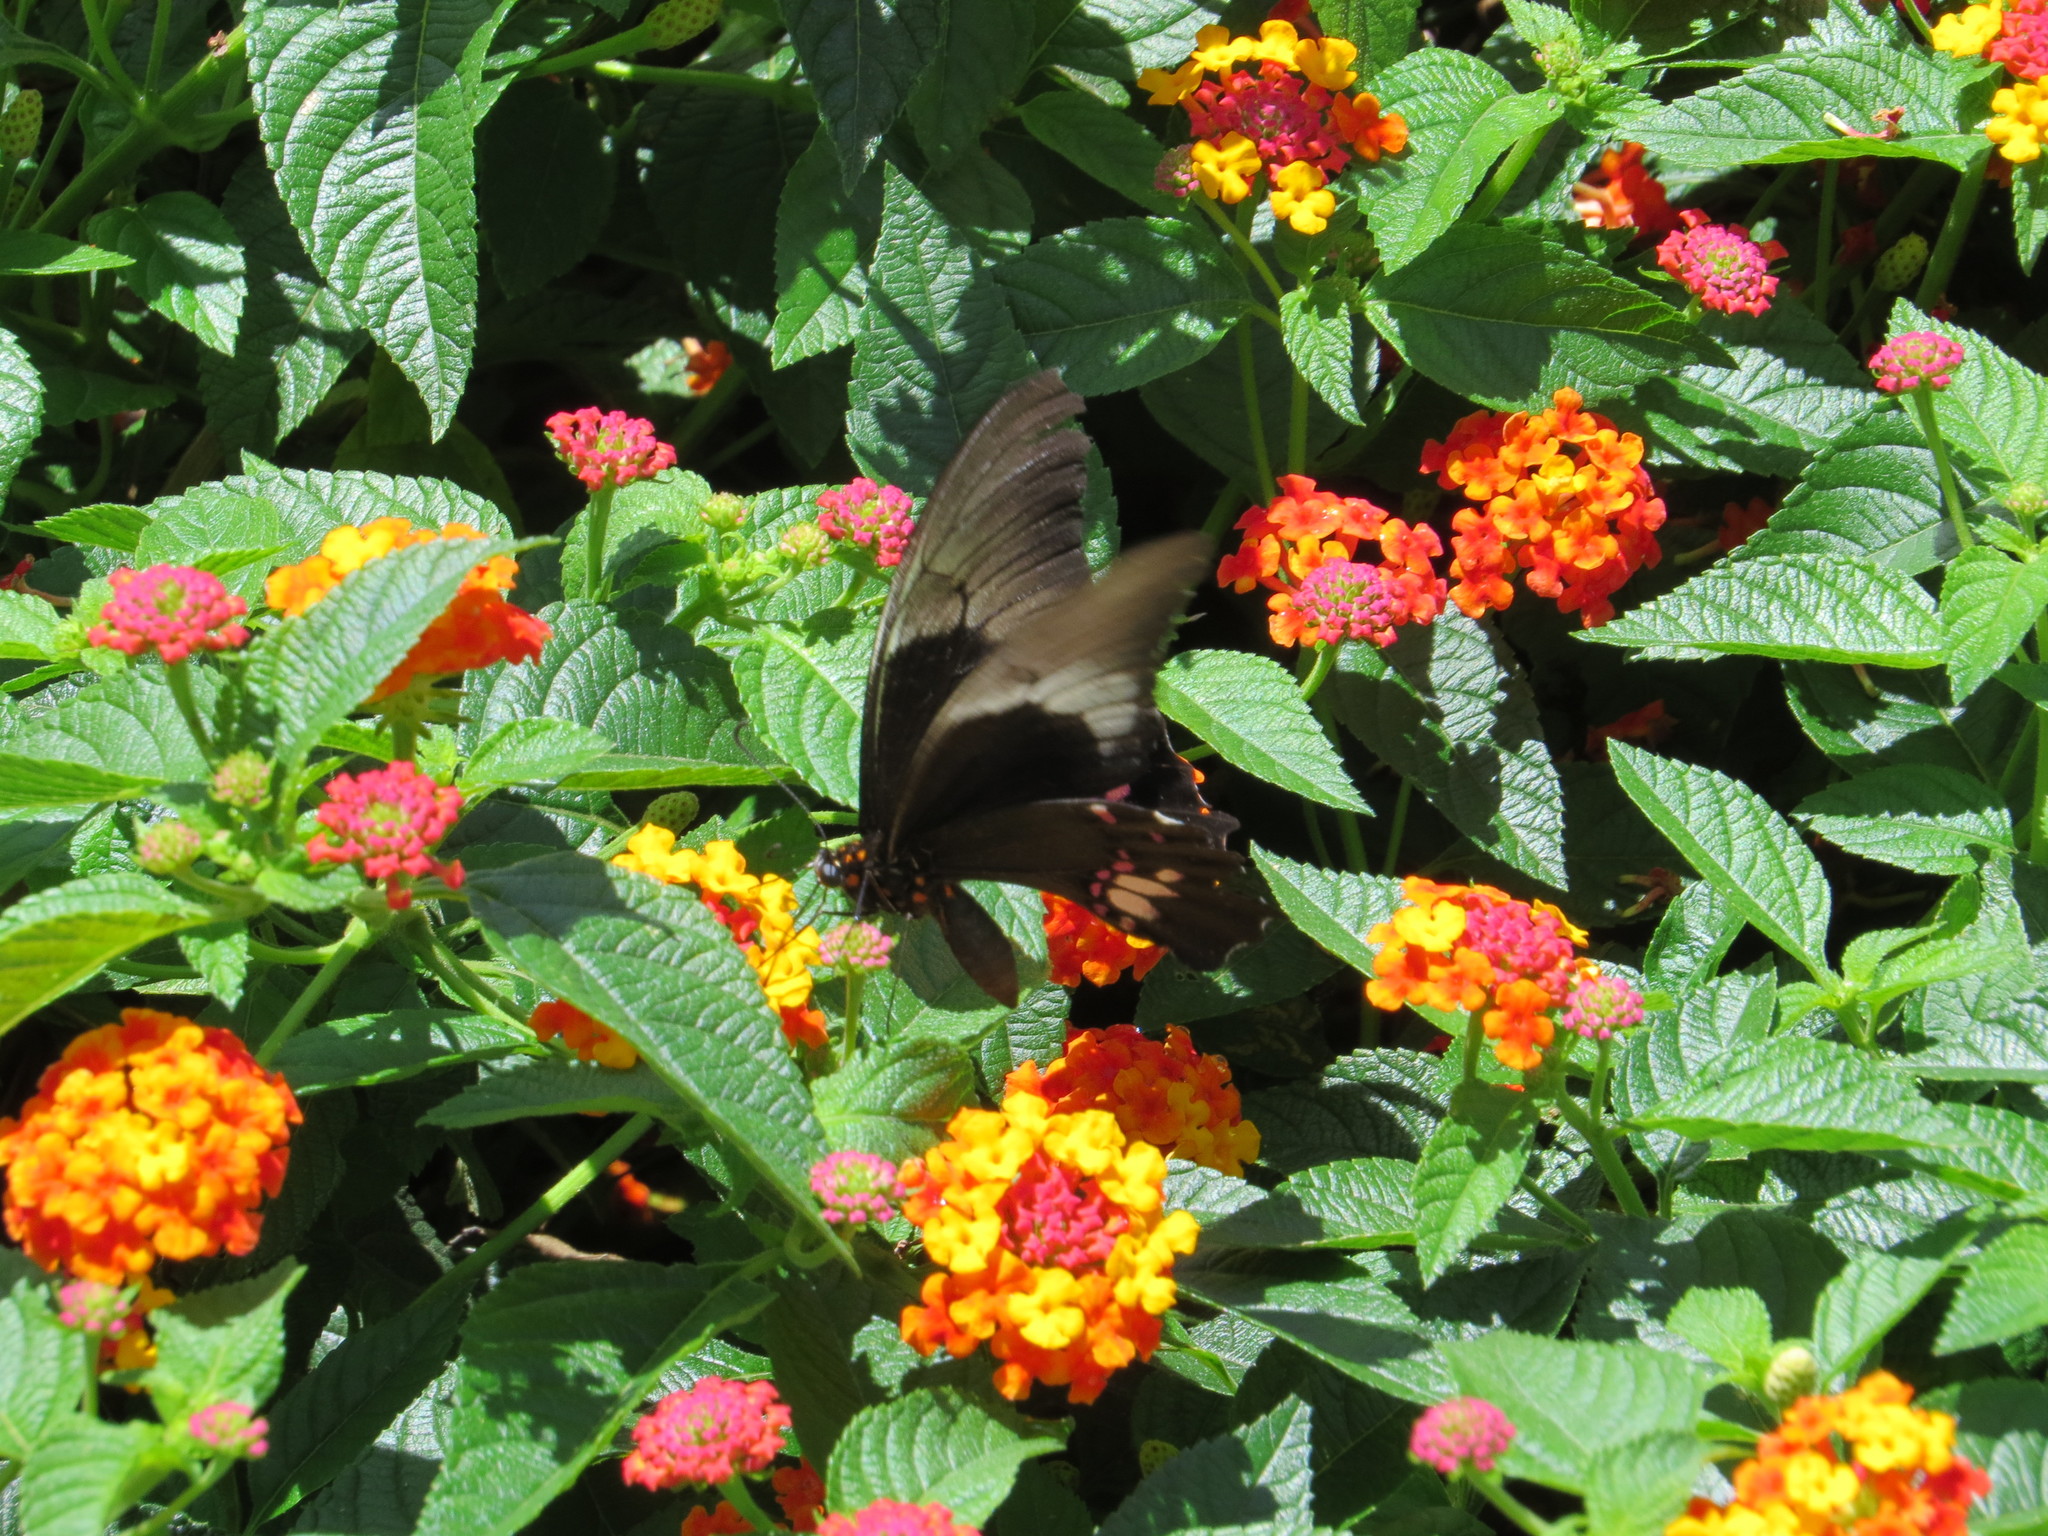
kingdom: Animalia
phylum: Arthropoda
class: Insecta
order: Lepidoptera
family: Papilionidae
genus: Papilio
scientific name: Papilio anchisiades
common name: Idaes swallowtail
